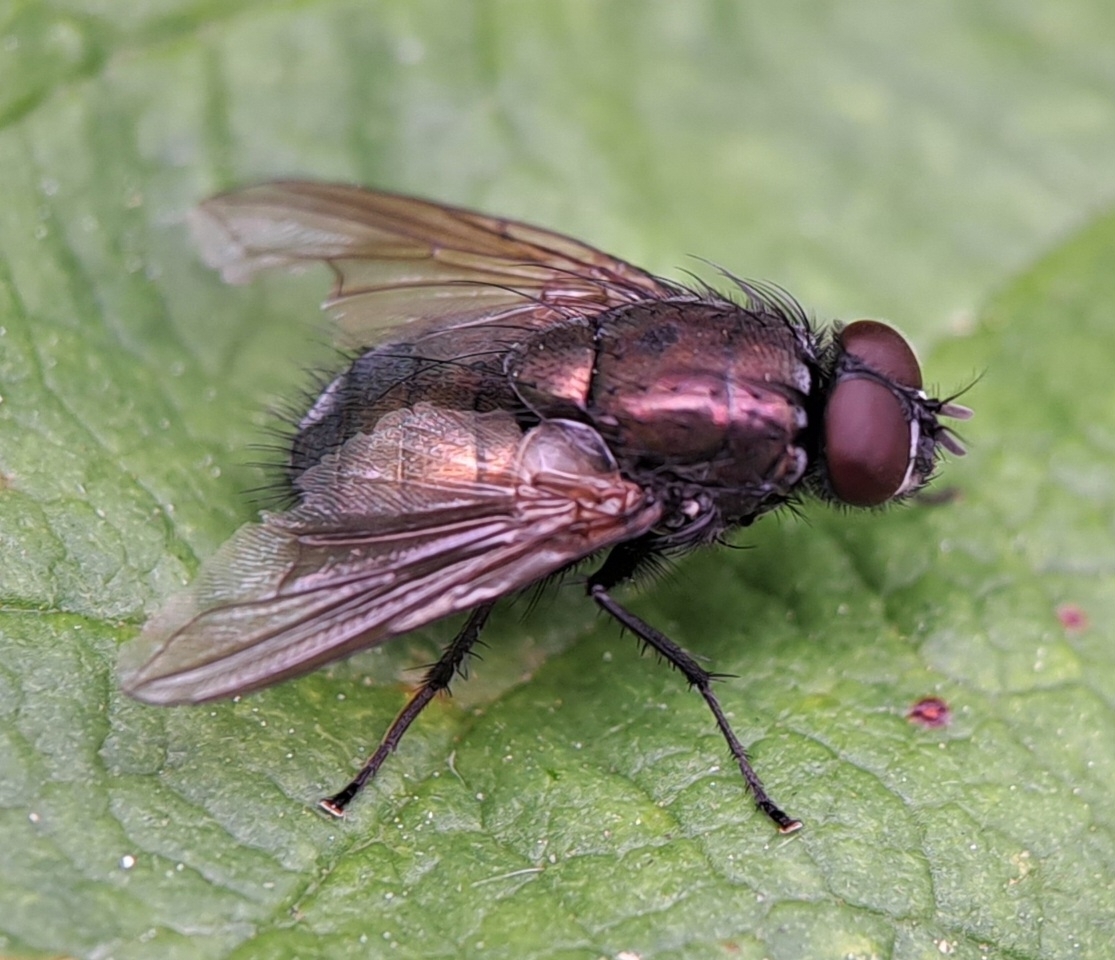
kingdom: Animalia
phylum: Arthropoda
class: Insecta
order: Diptera
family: Muscidae
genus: Dasyphora
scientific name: Dasyphora cyanella
